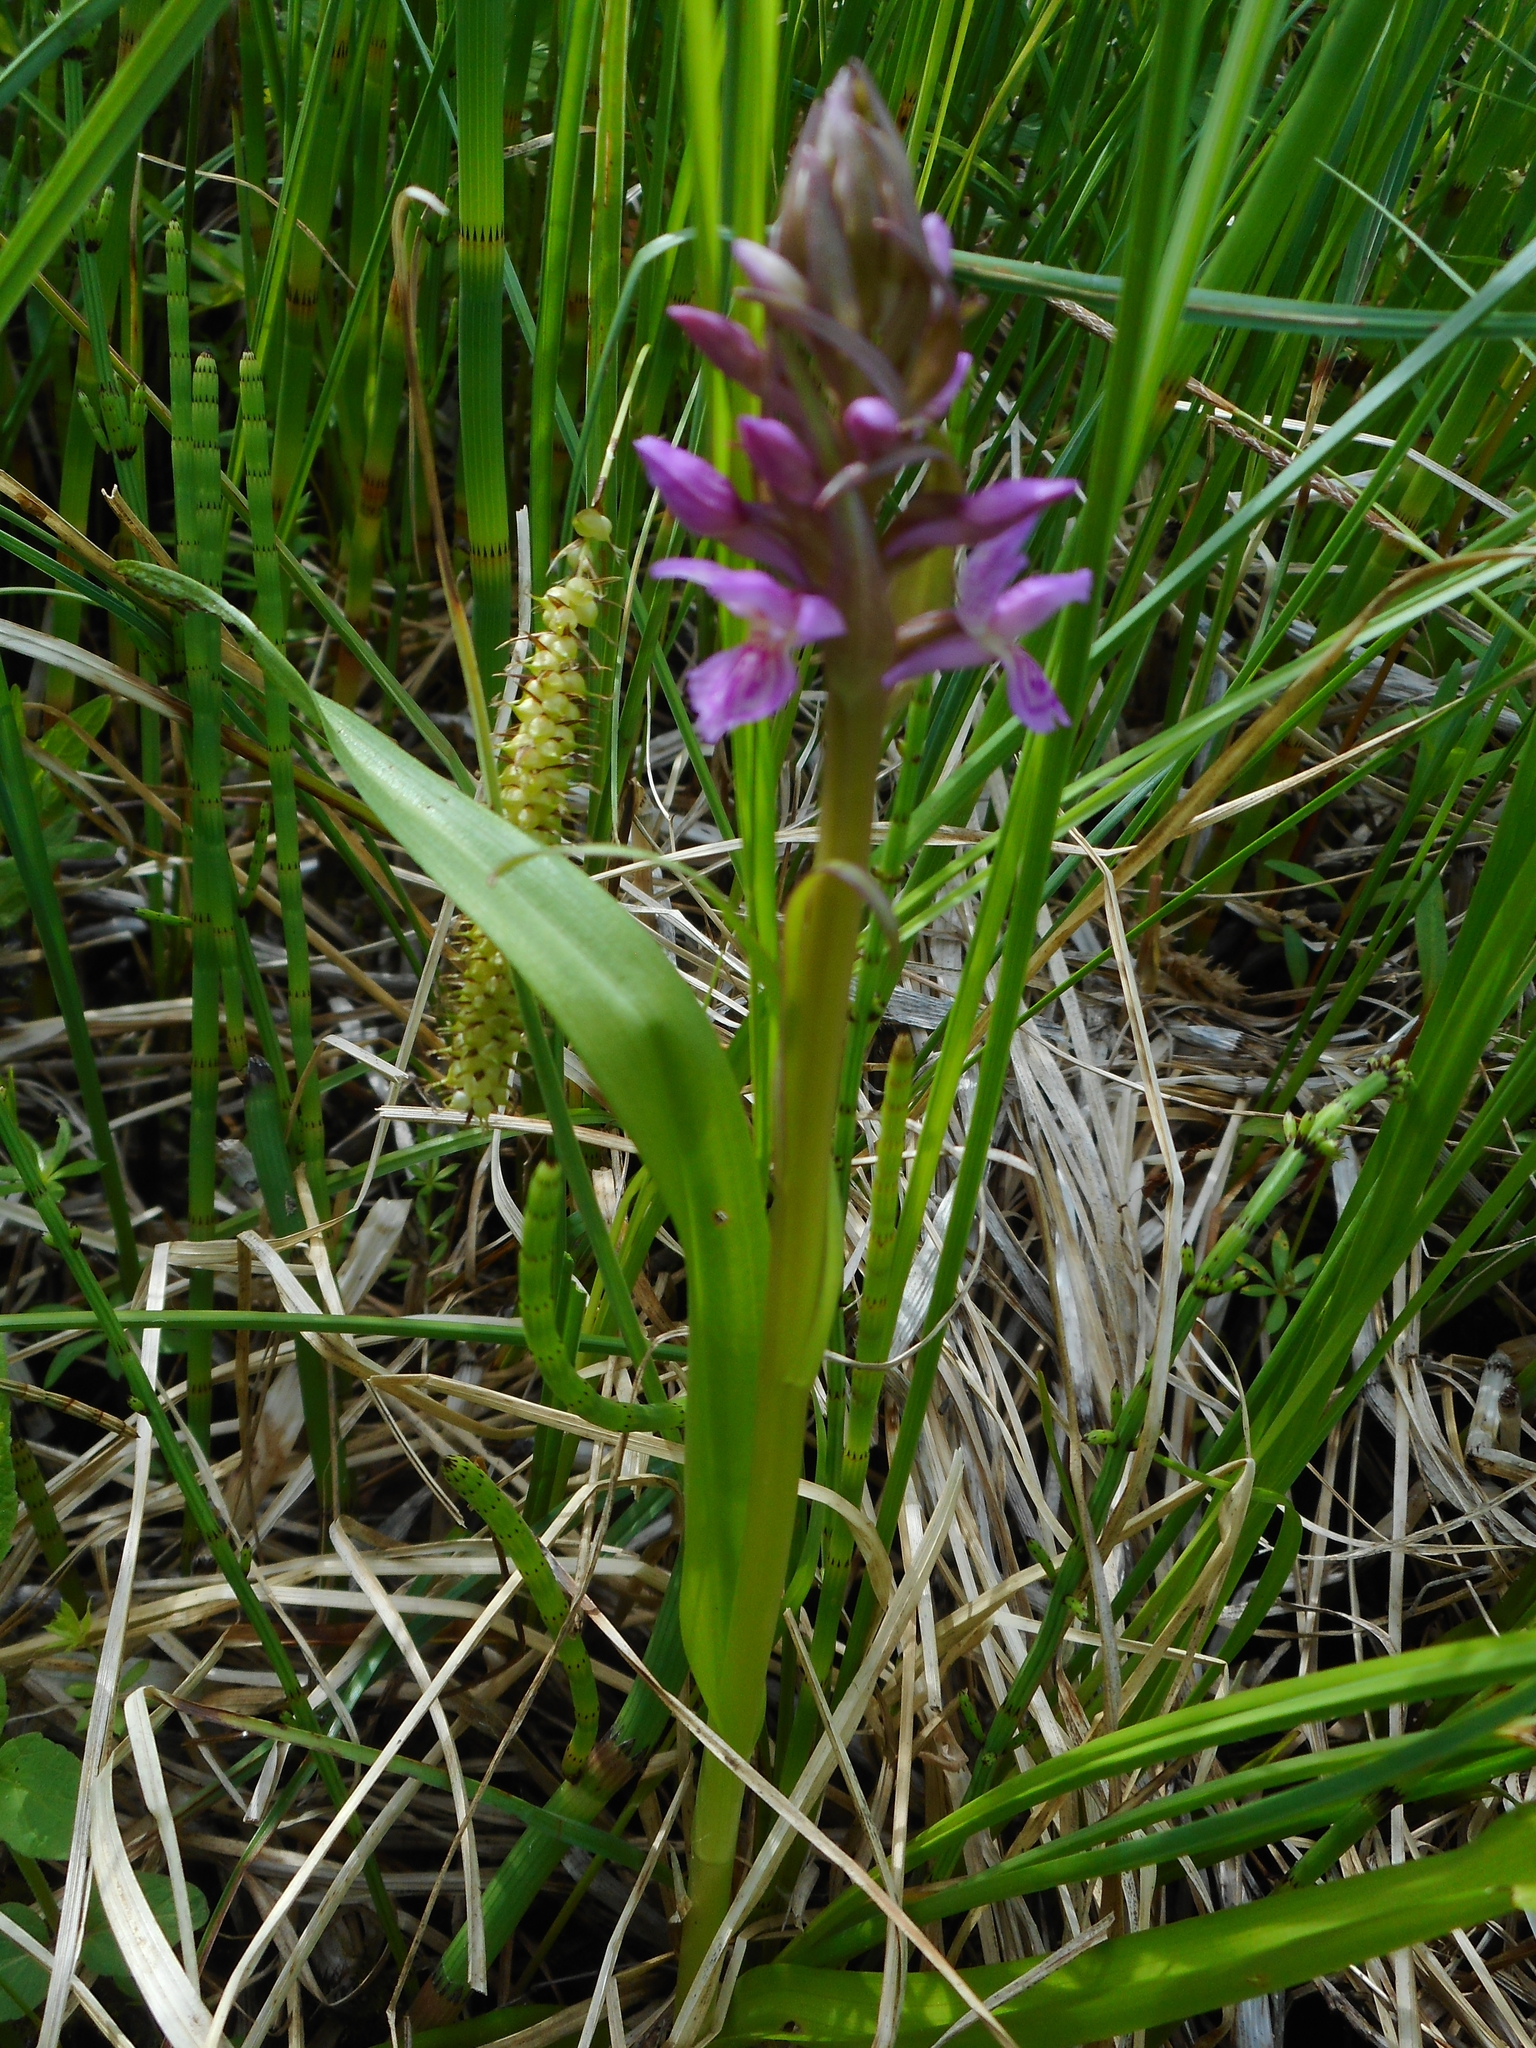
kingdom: Plantae
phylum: Tracheophyta
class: Liliopsida
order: Asparagales
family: Orchidaceae
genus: Dactylorhiza
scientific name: Dactylorhiza incarnata
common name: Early marsh-orchid
